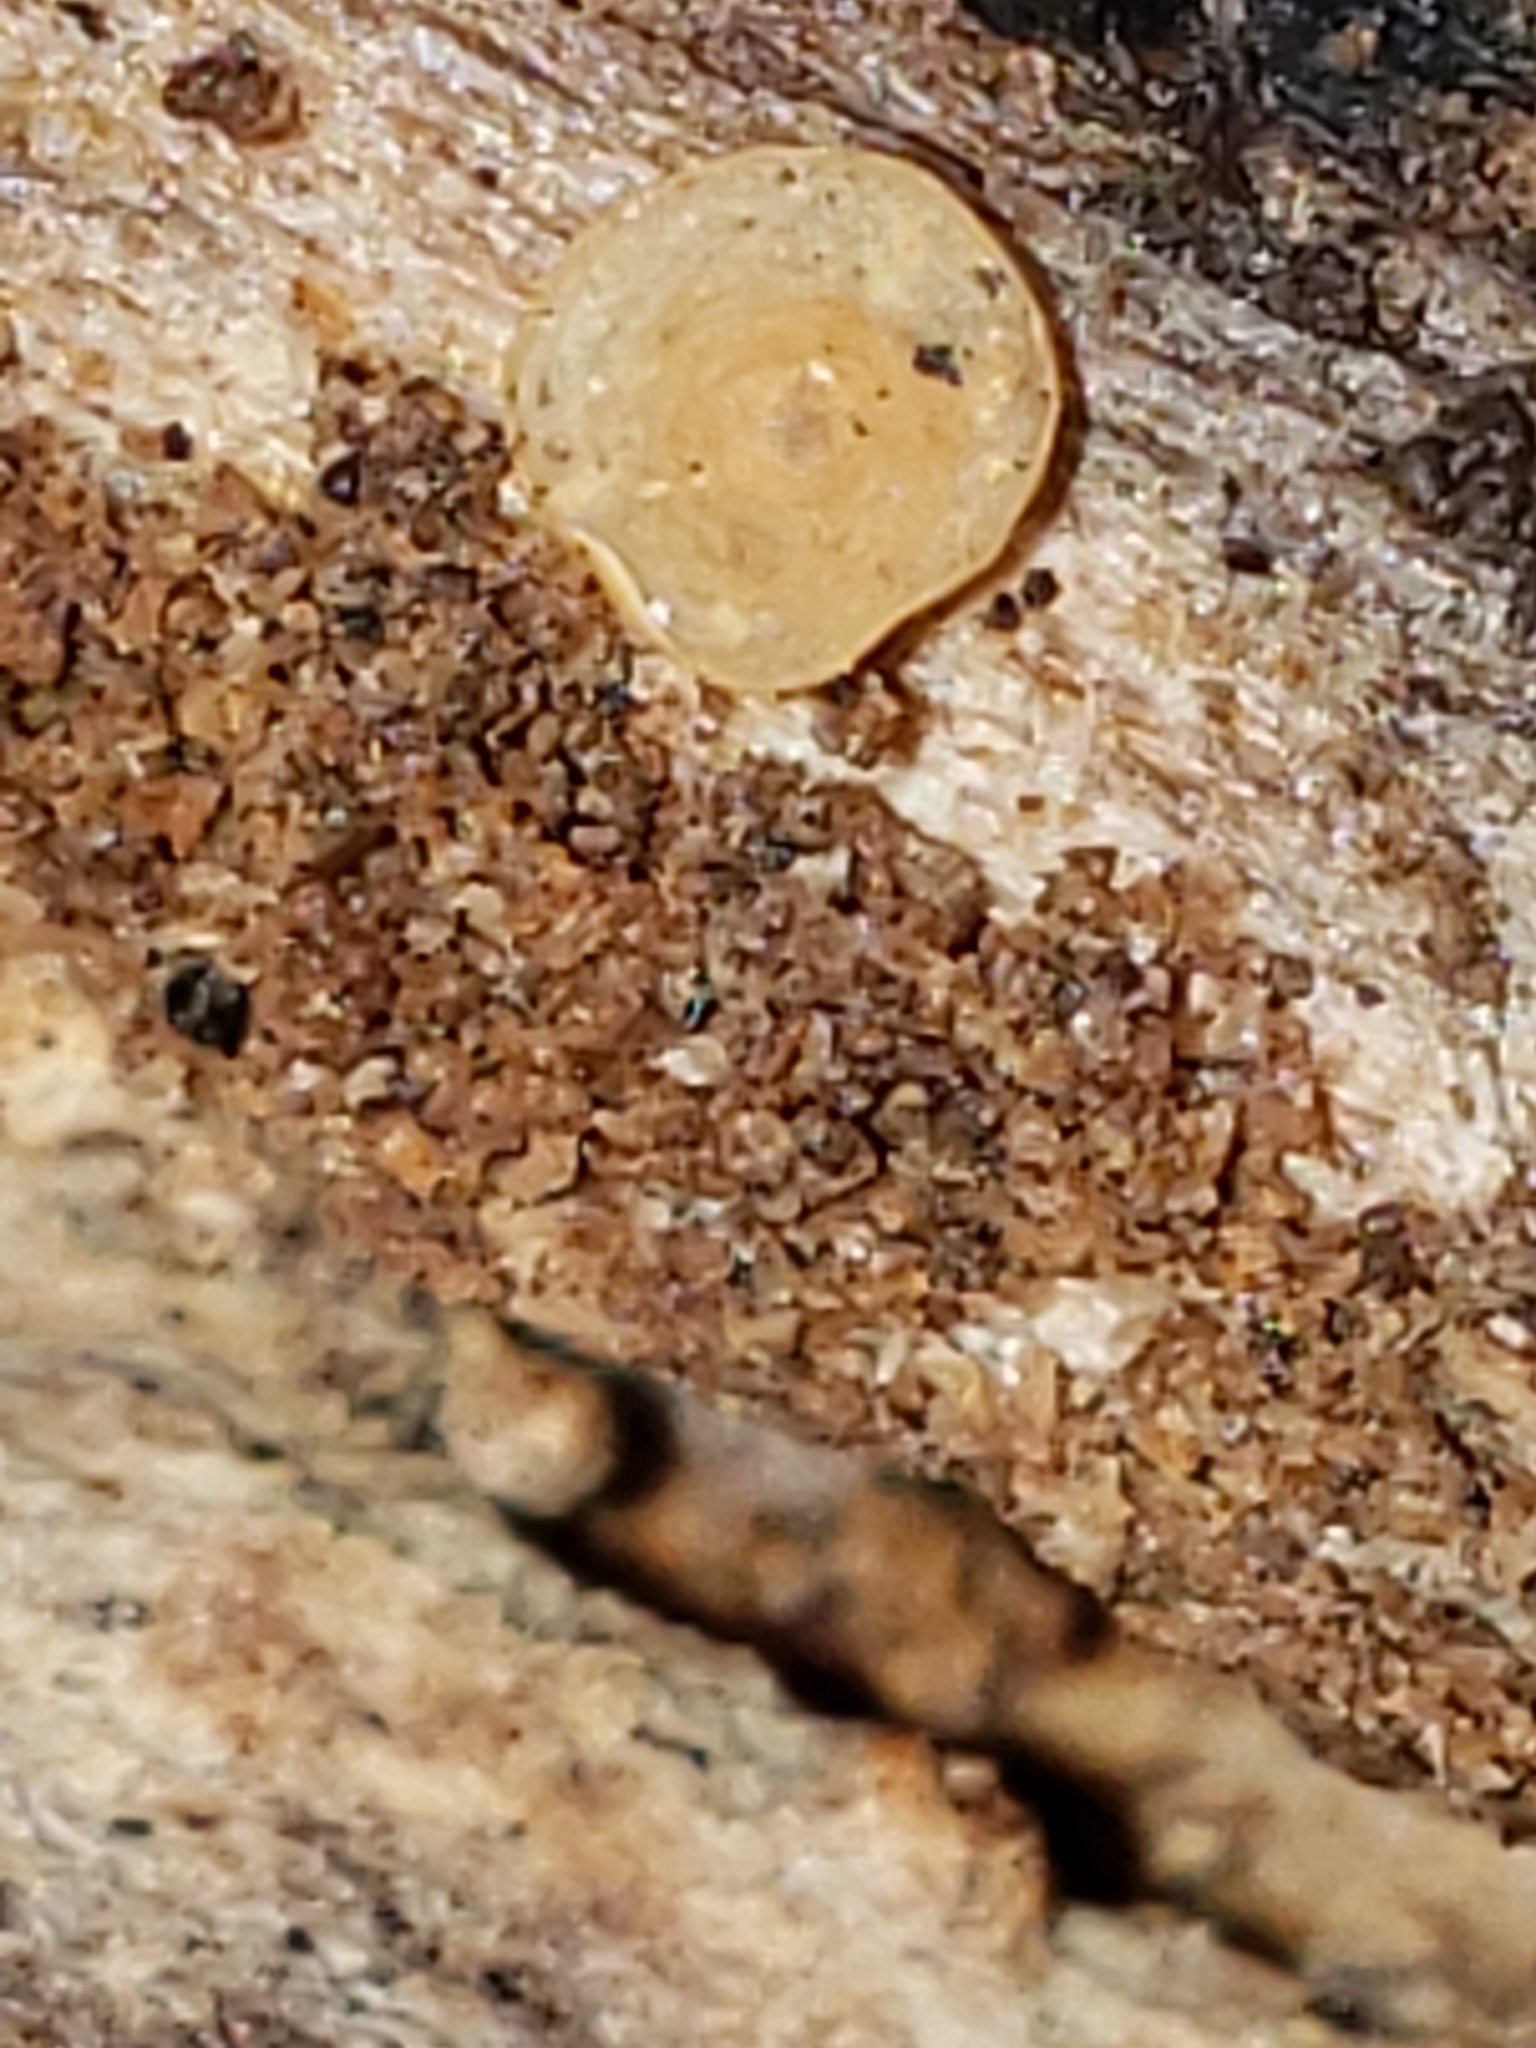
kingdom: Fungi
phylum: Ascomycota
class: Orbiliomycetes
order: Orbiliales
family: Orbiliaceae
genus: Hyalorbilia
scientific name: Hyalorbilia
